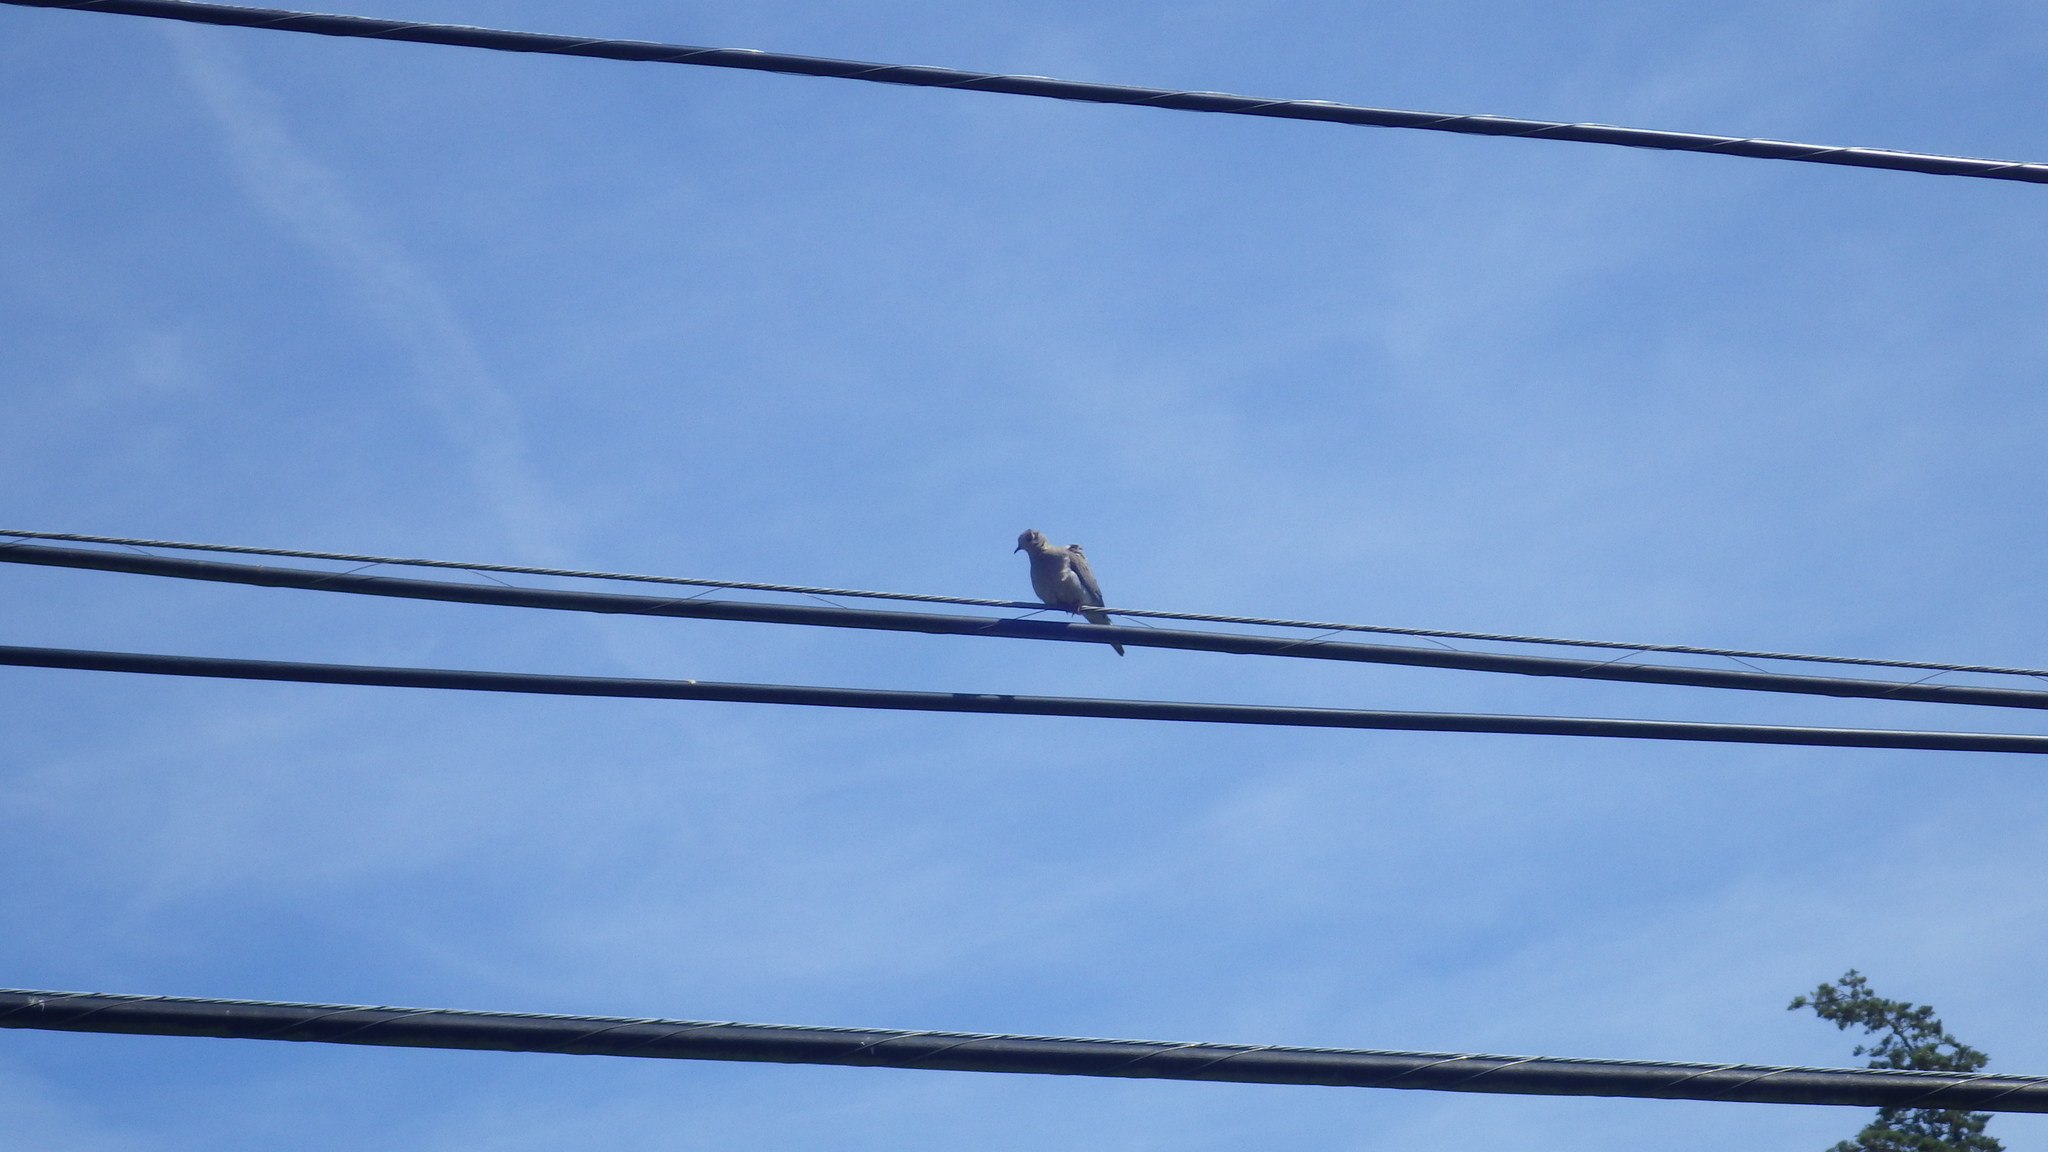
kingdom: Animalia
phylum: Chordata
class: Aves
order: Columbiformes
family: Columbidae
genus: Zenaida
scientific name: Zenaida macroura
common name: Mourning dove
